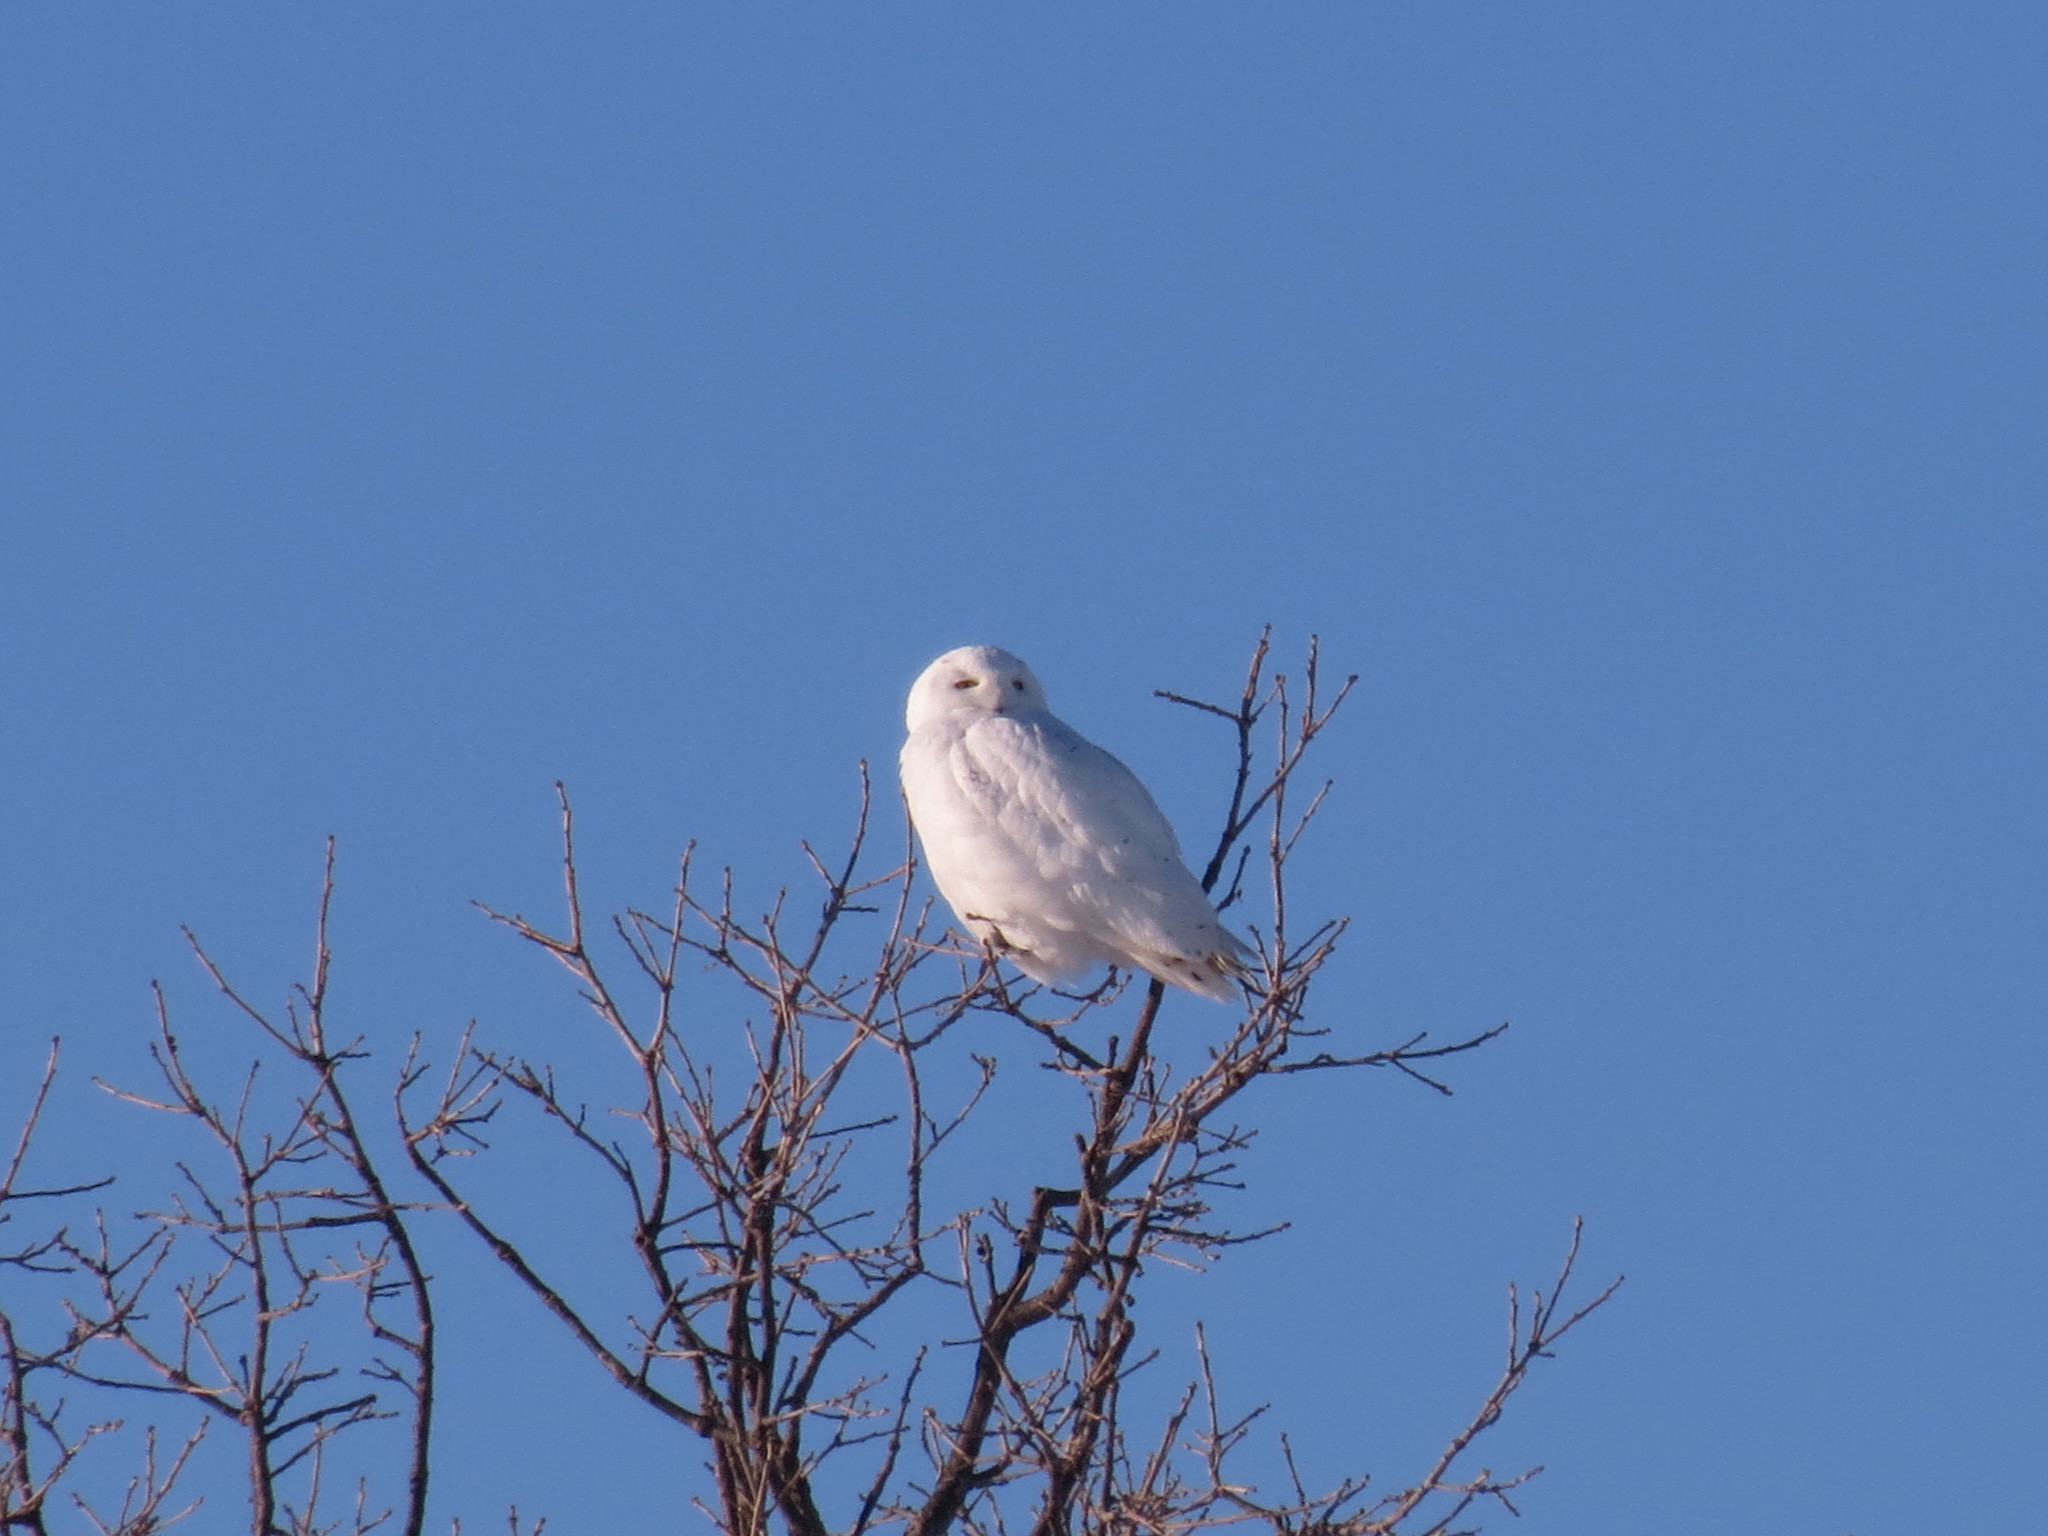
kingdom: Animalia
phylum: Chordata
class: Aves
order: Strigiformes
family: Strigidae
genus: Bubo
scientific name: Bubo scandiacus
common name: Snowy owl
